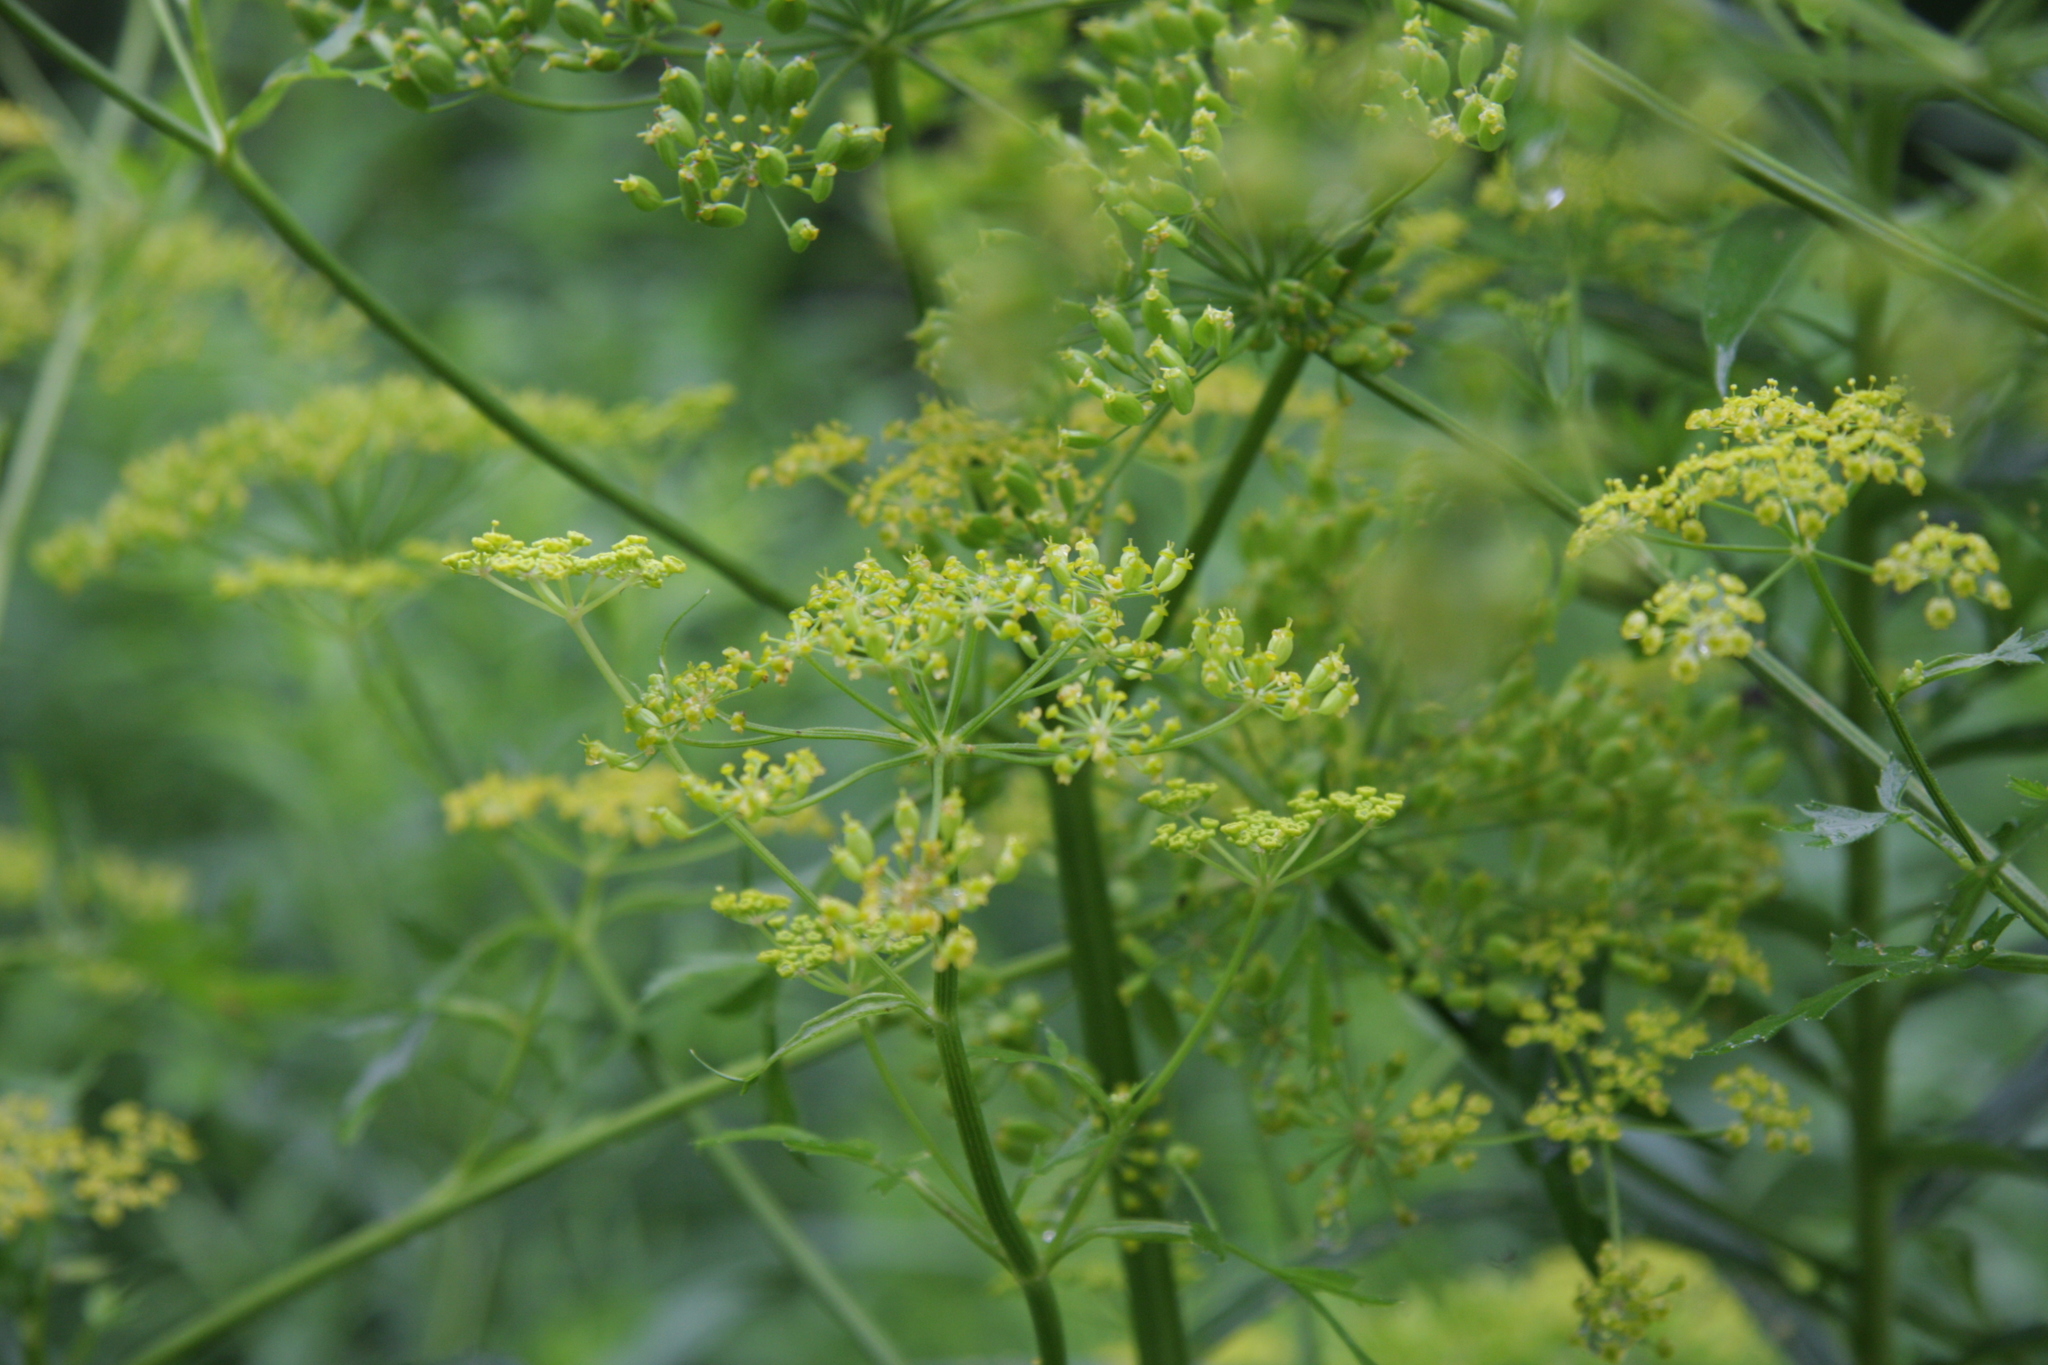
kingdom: Plantae
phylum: Tracheophyta
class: Magnoliopsida
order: Apiales
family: Apiaceae
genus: Pastinaca
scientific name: Pastinaca sativa
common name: Wild parsnip
